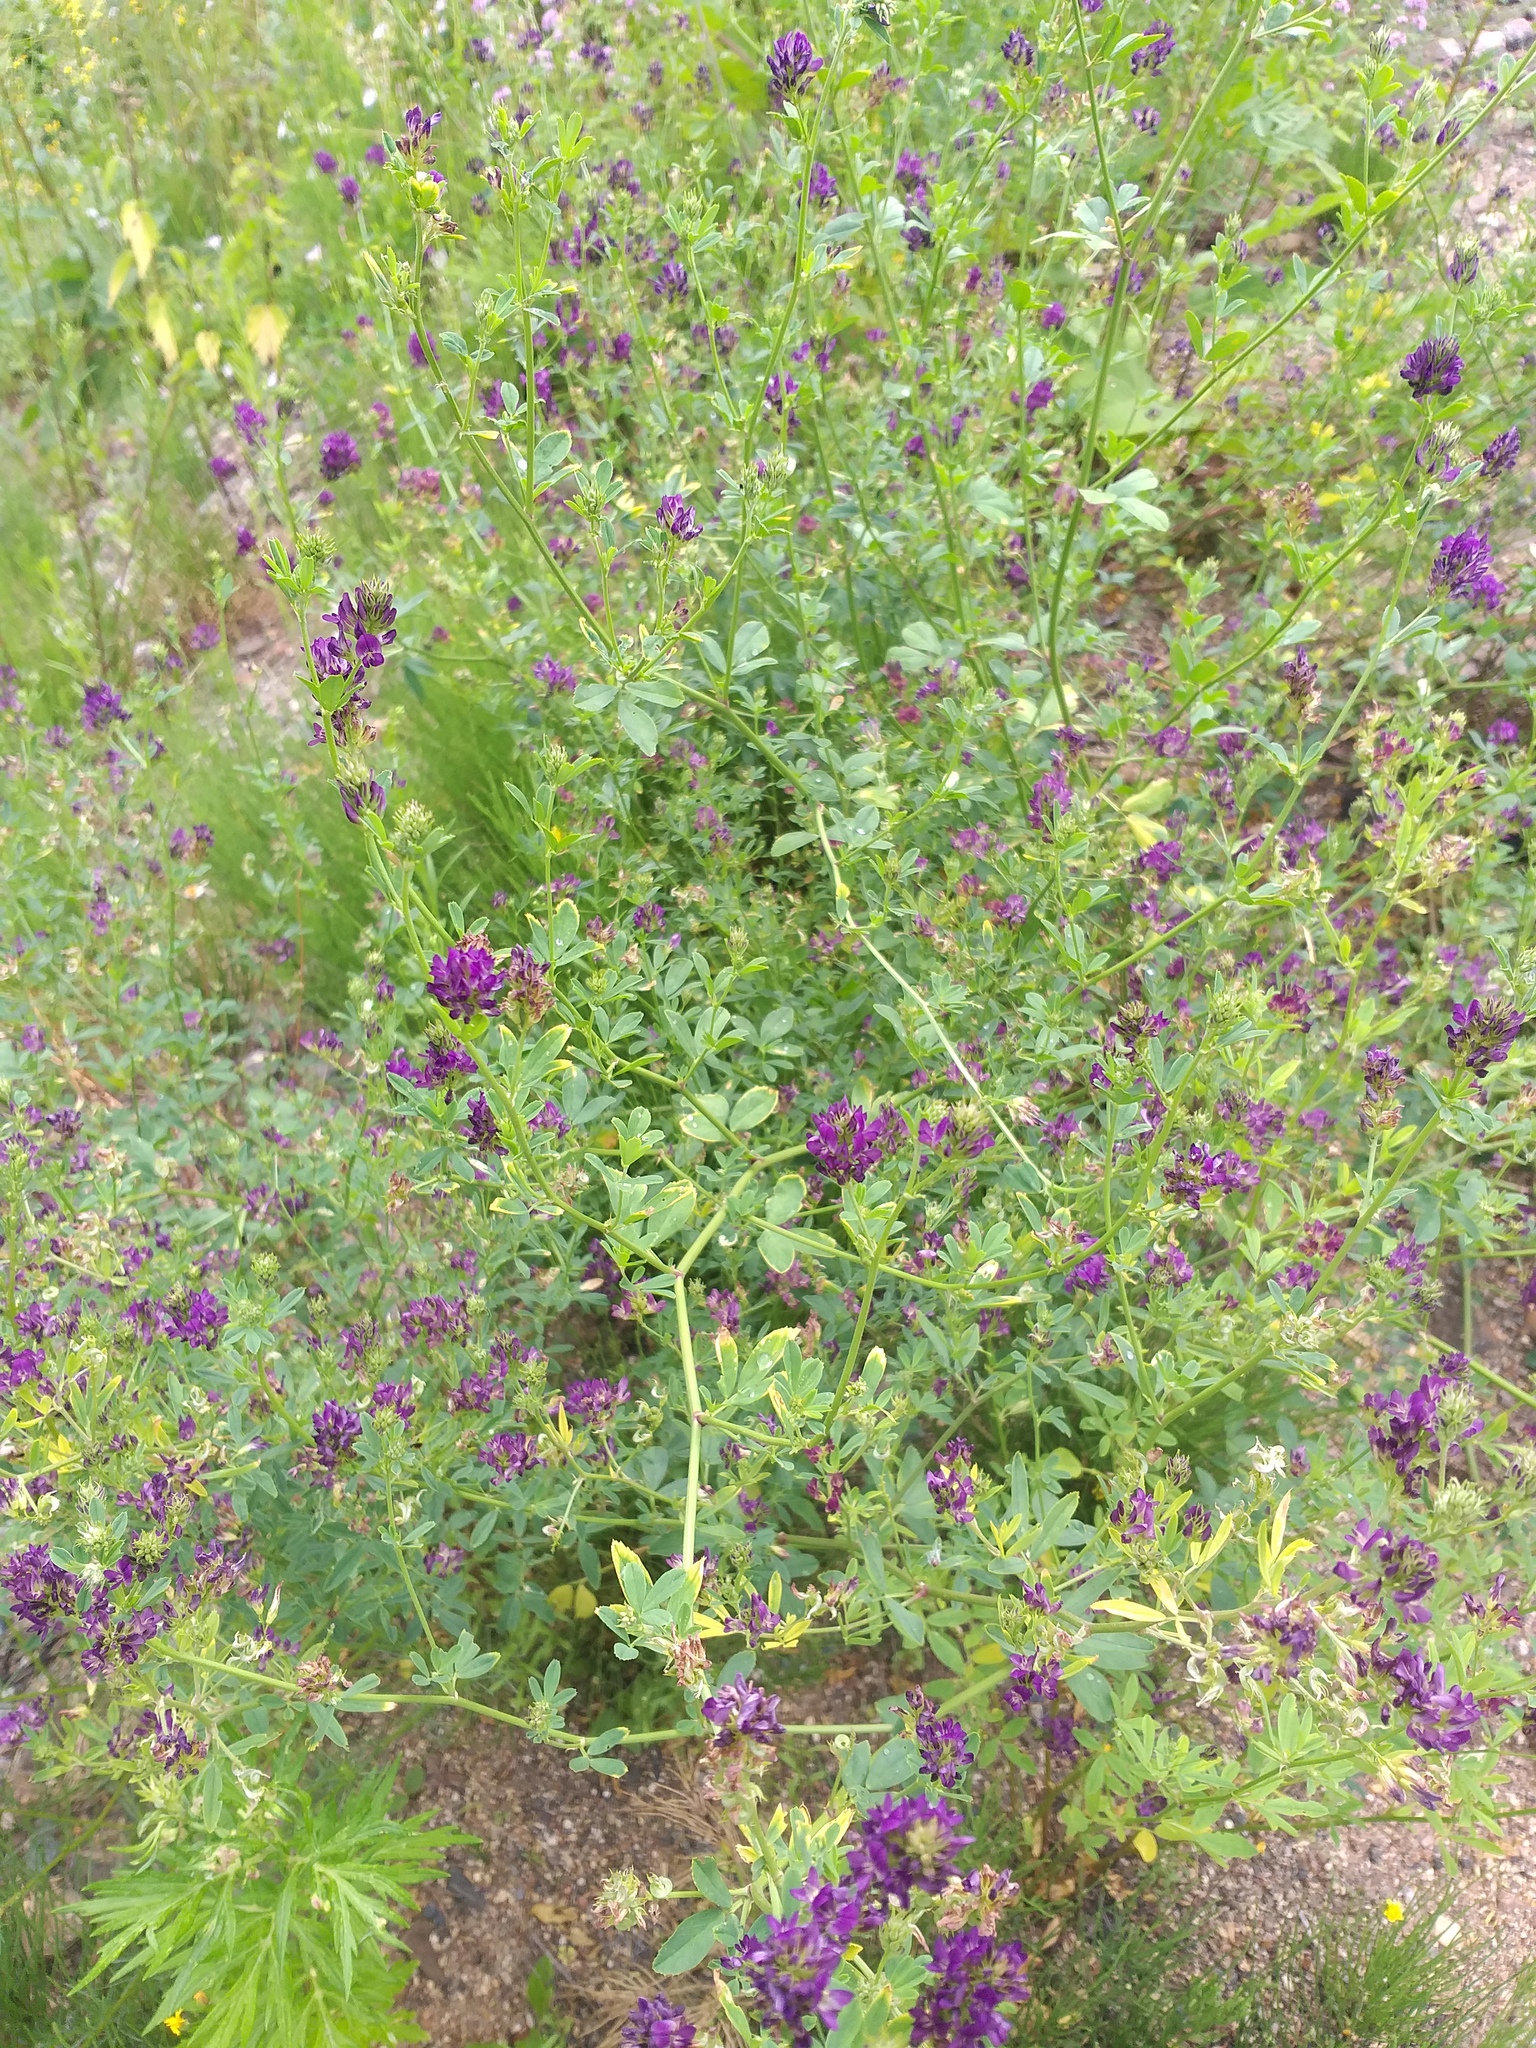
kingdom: Plantae
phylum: Tracheophyta
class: Magnoliopsida
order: Fabales
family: Fabaceae
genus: Medicago
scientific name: Medicago varia
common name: Sand lucerne
